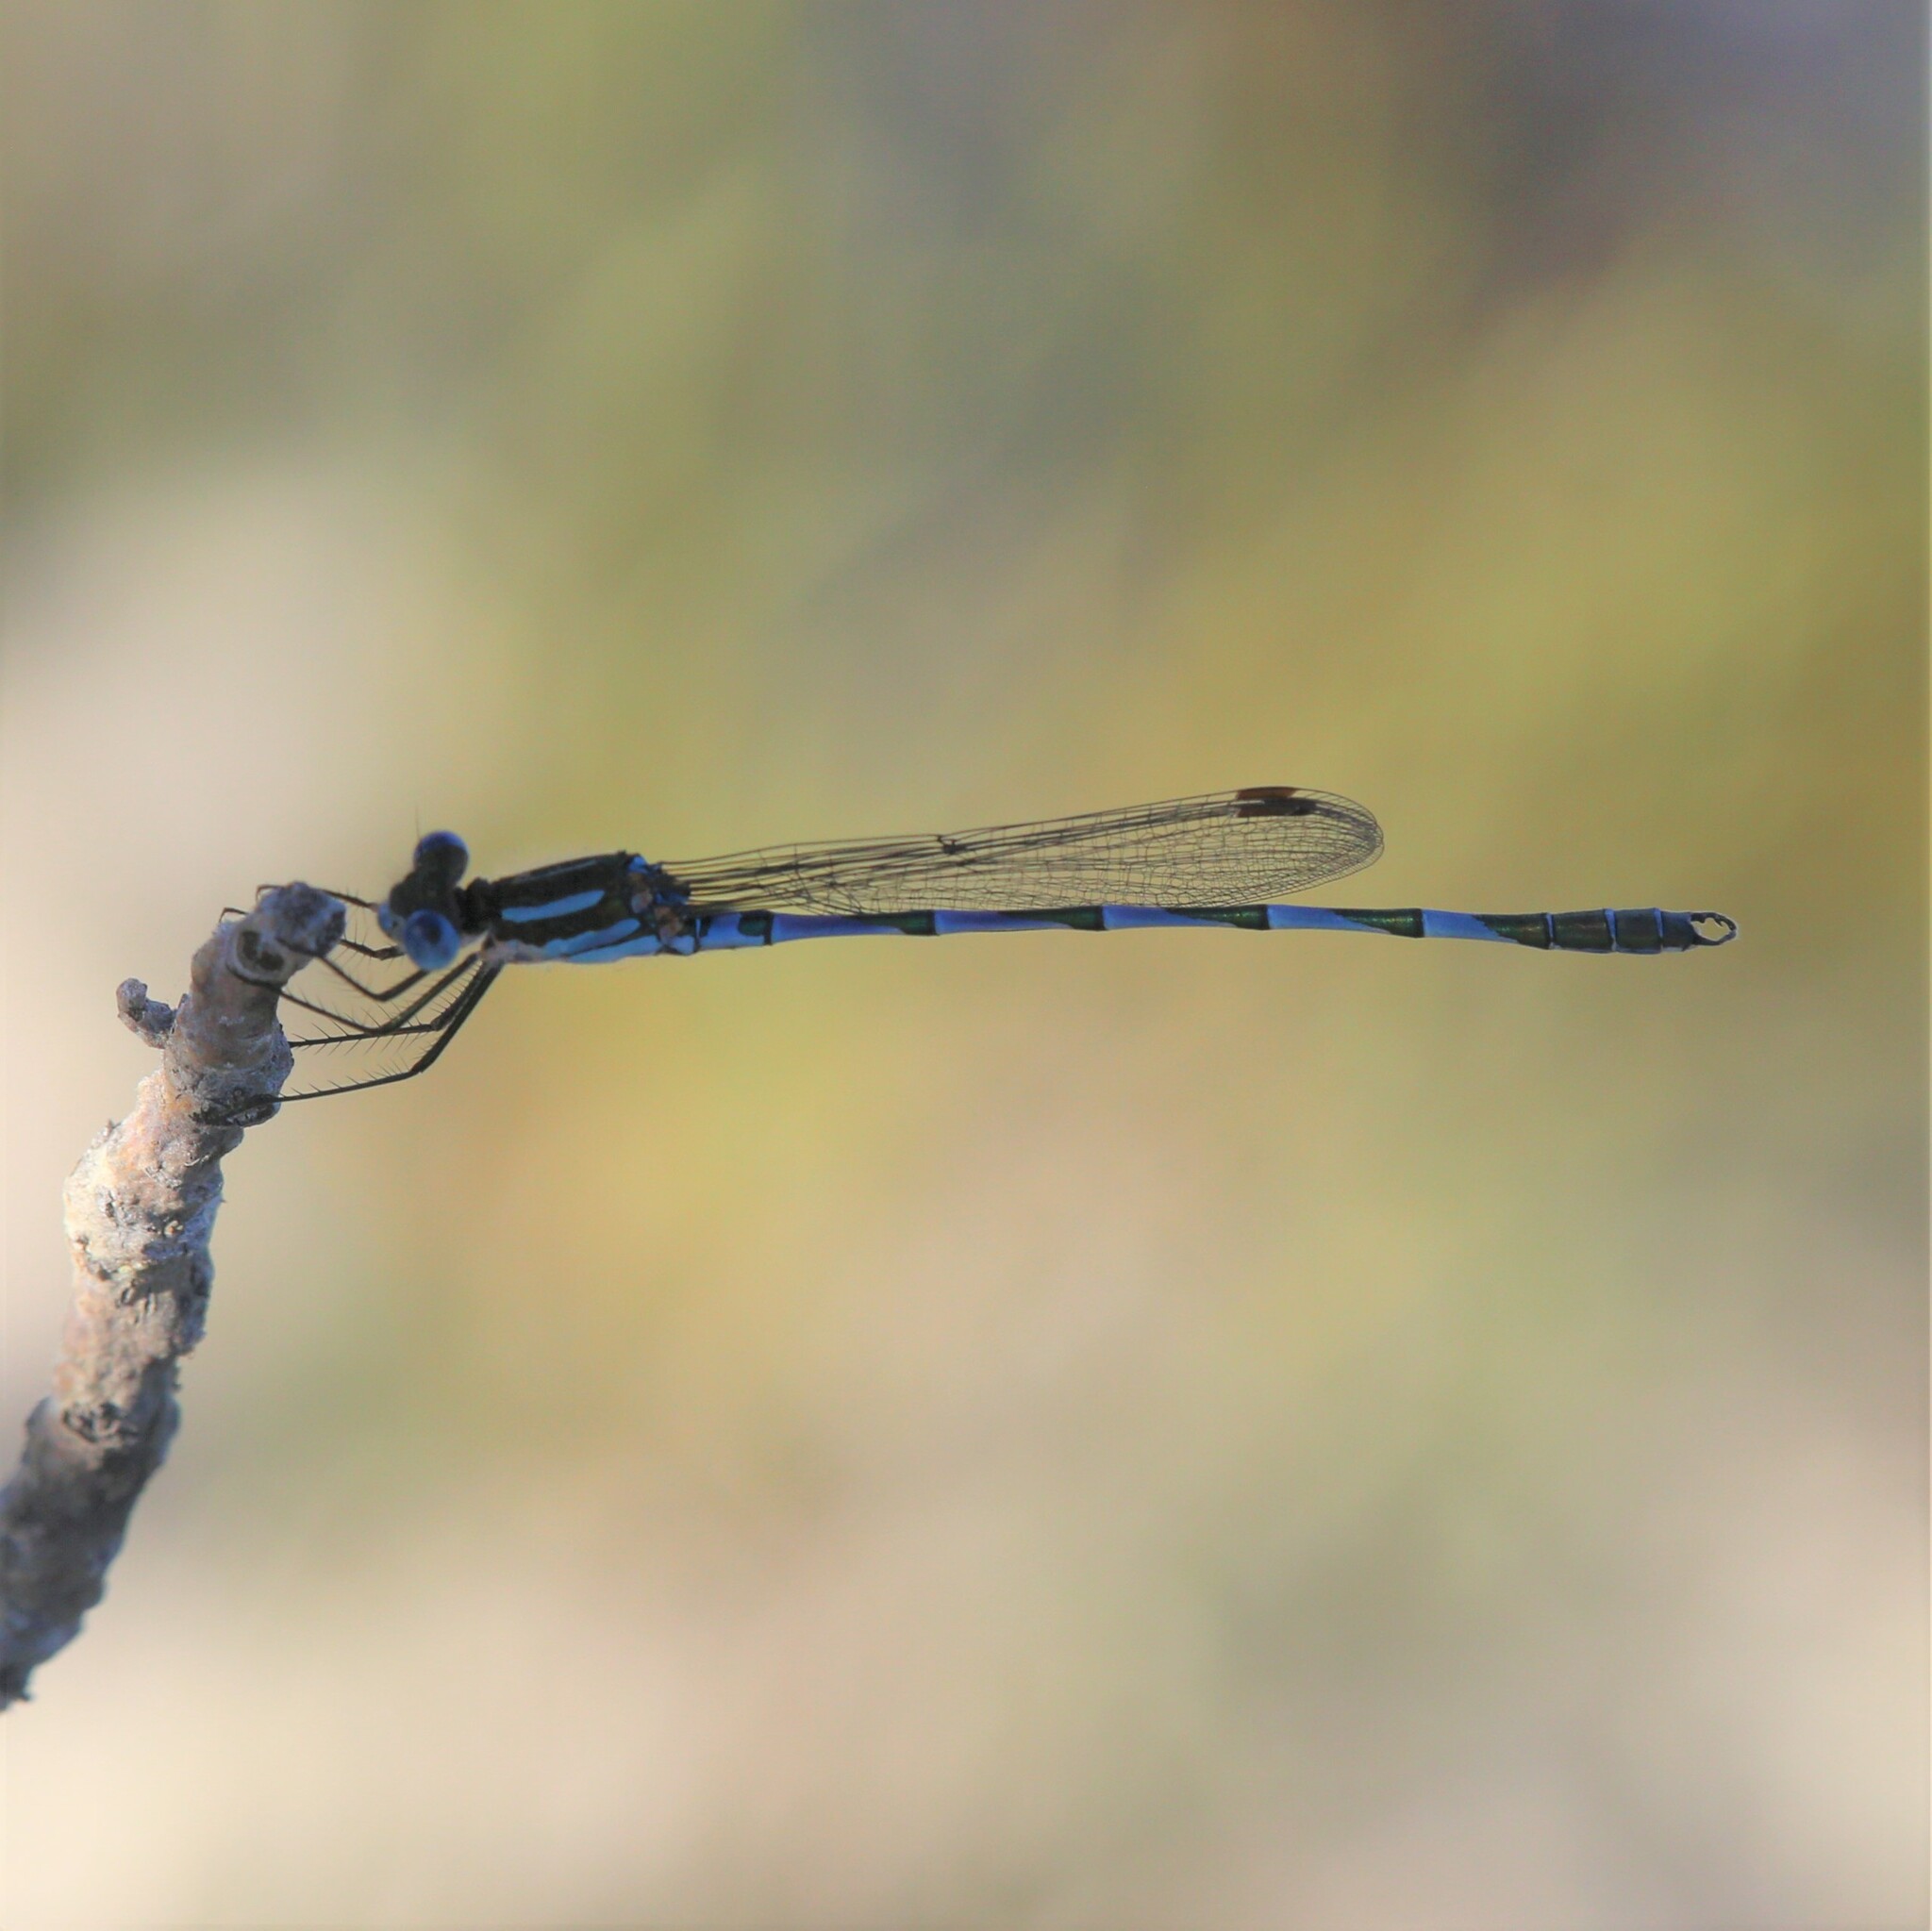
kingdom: Animalia
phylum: Arthropoda
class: Insecta
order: Odonata
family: Lestidae
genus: Austrolestes
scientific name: Austrolestes annulosus
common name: Blue ringtail
